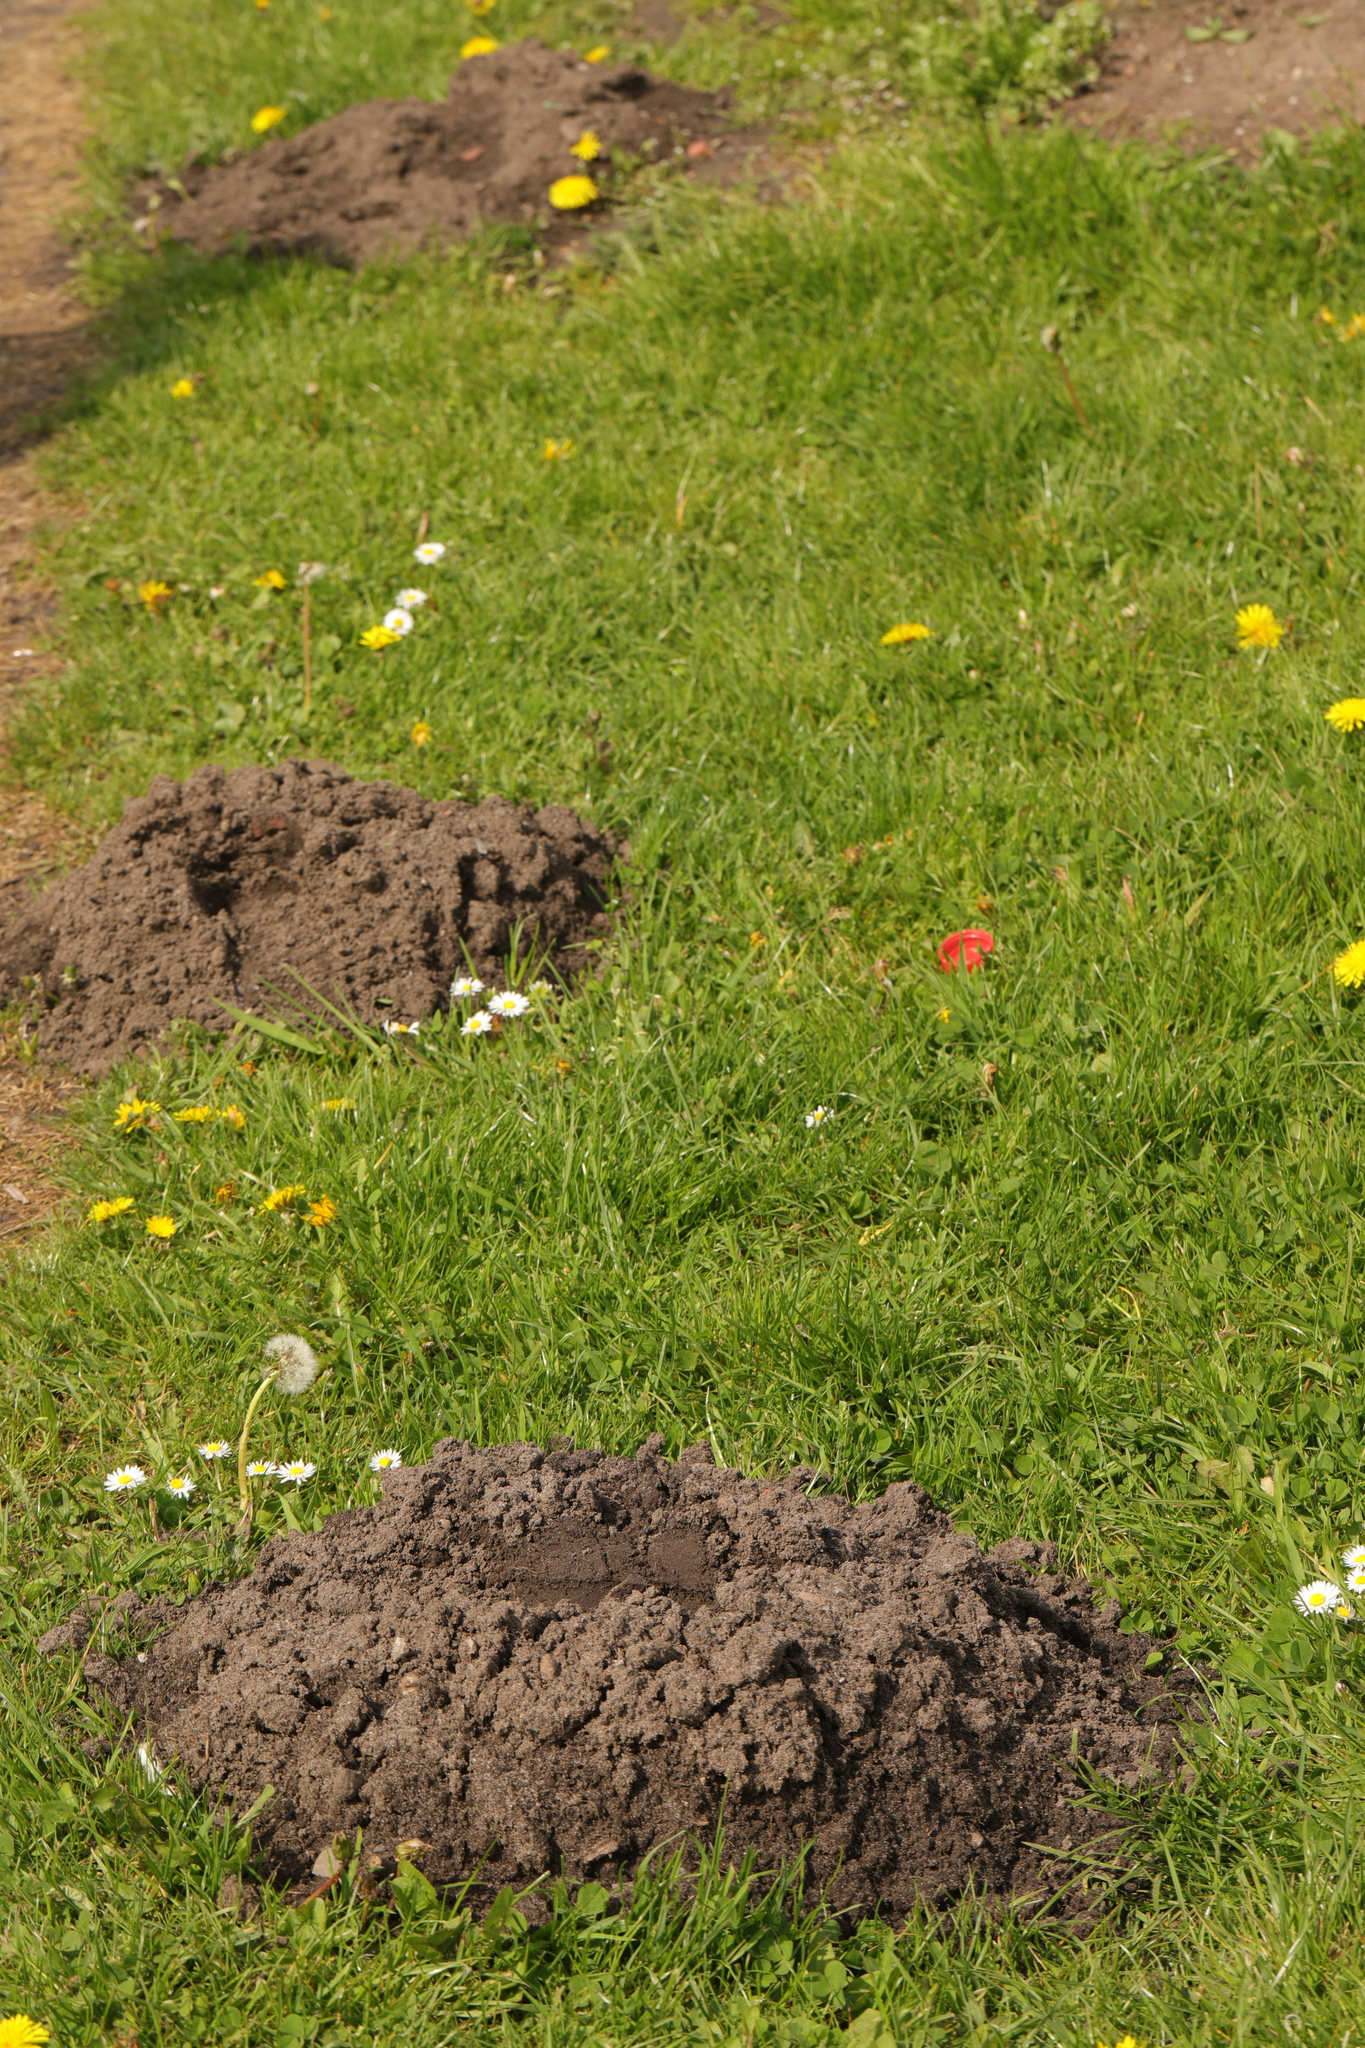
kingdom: Animalia
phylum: Chordata
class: Mammalia
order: Soricomorpha
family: Talpidae
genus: Talpa
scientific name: Talpa europaea
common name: European mole
